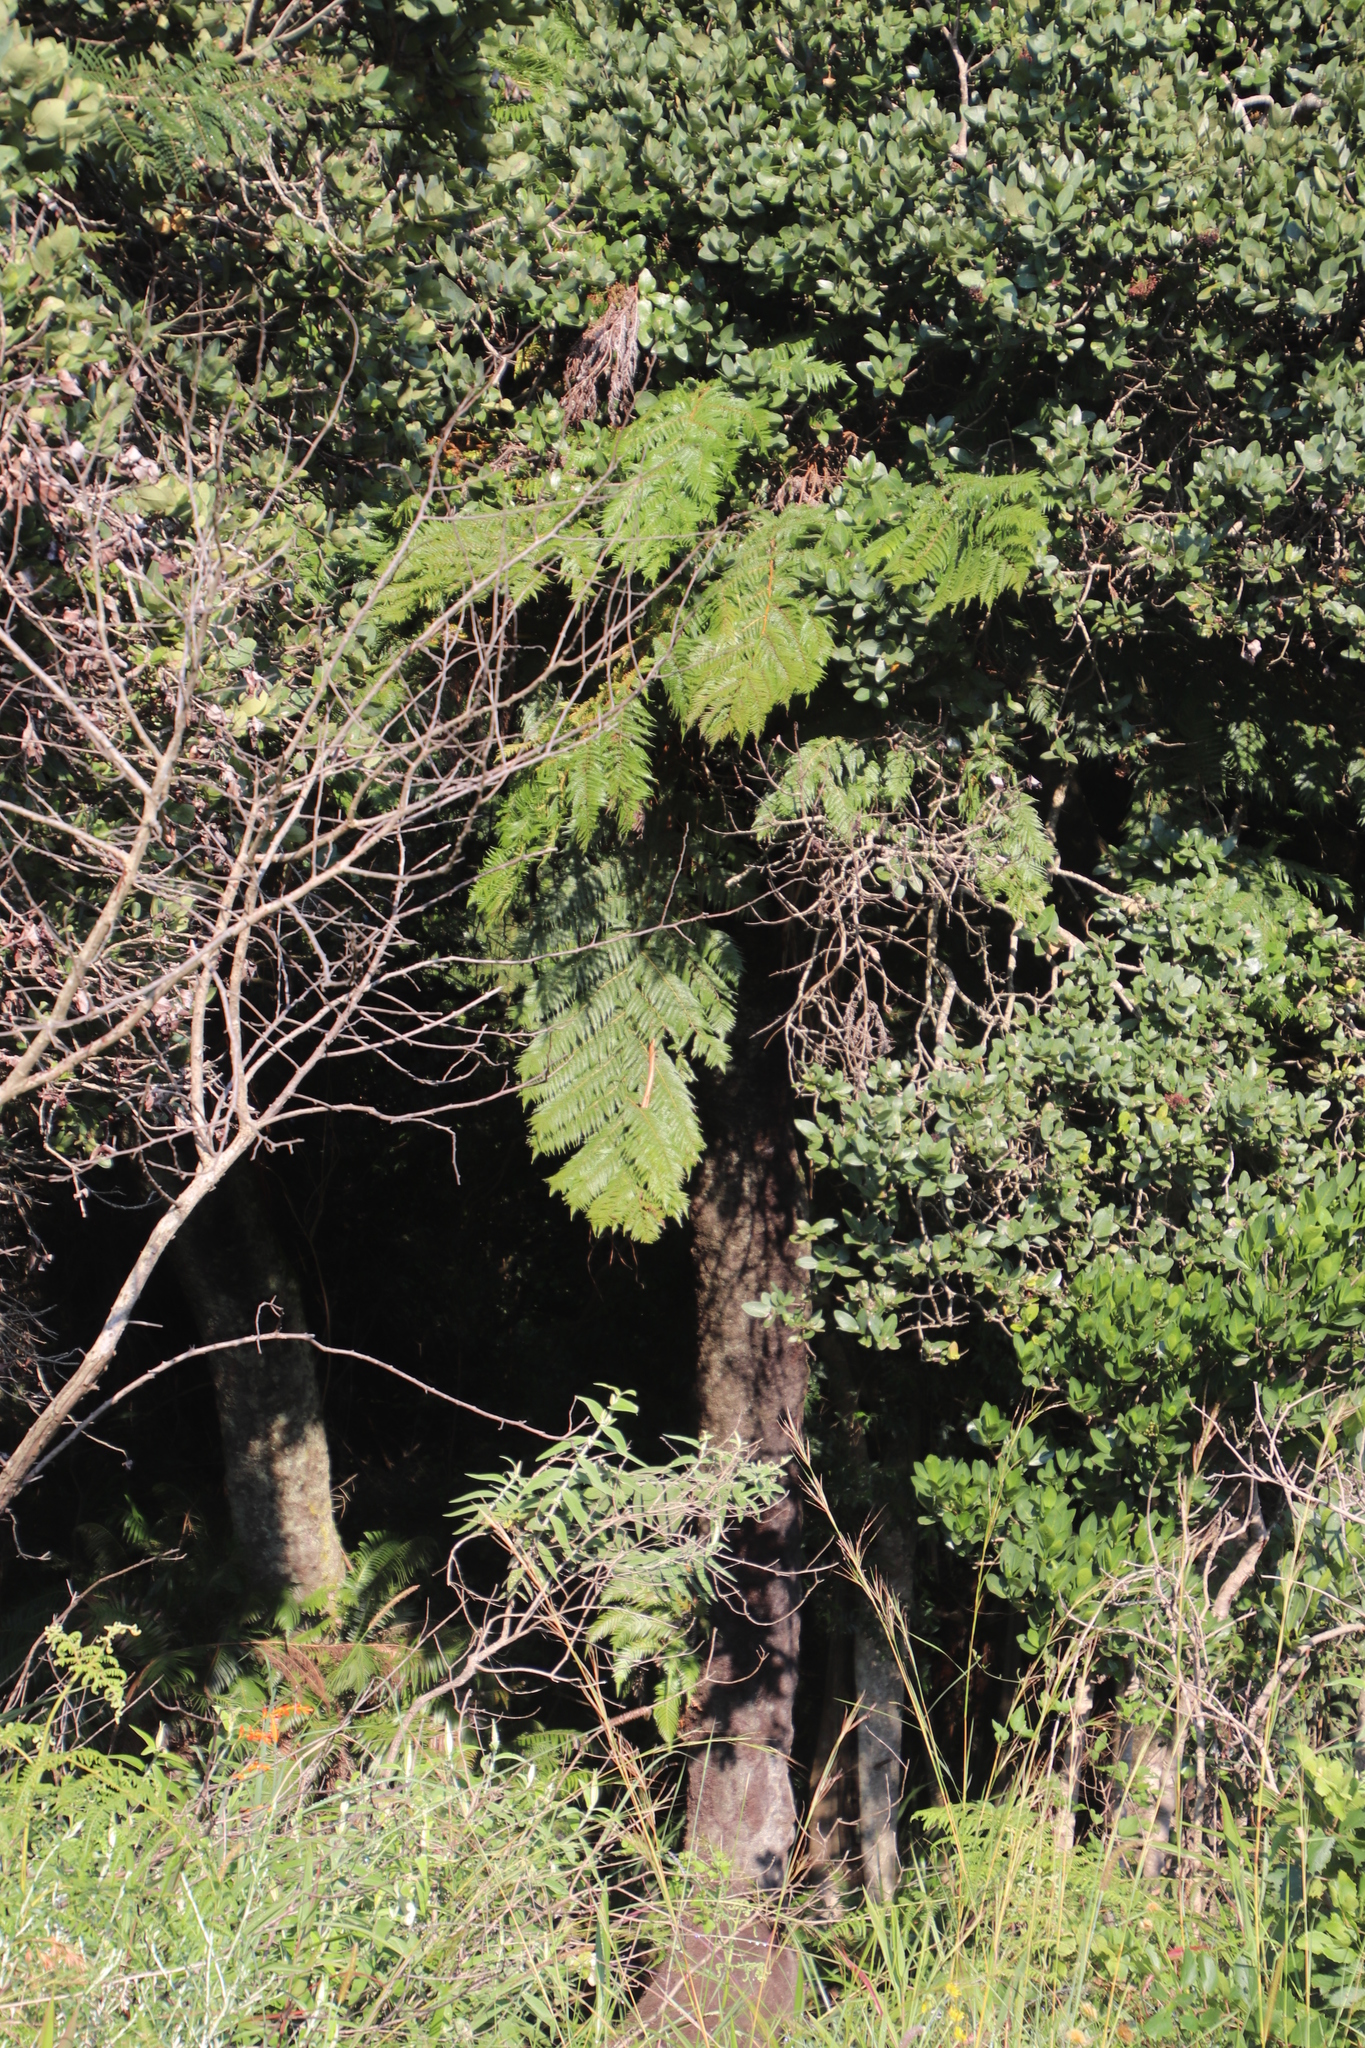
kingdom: Plantae
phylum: Tracheophyta
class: Polypodiopsida
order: Cyatheales
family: Cyatheaceae
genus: Alsophila
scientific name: Alsophila dregei
